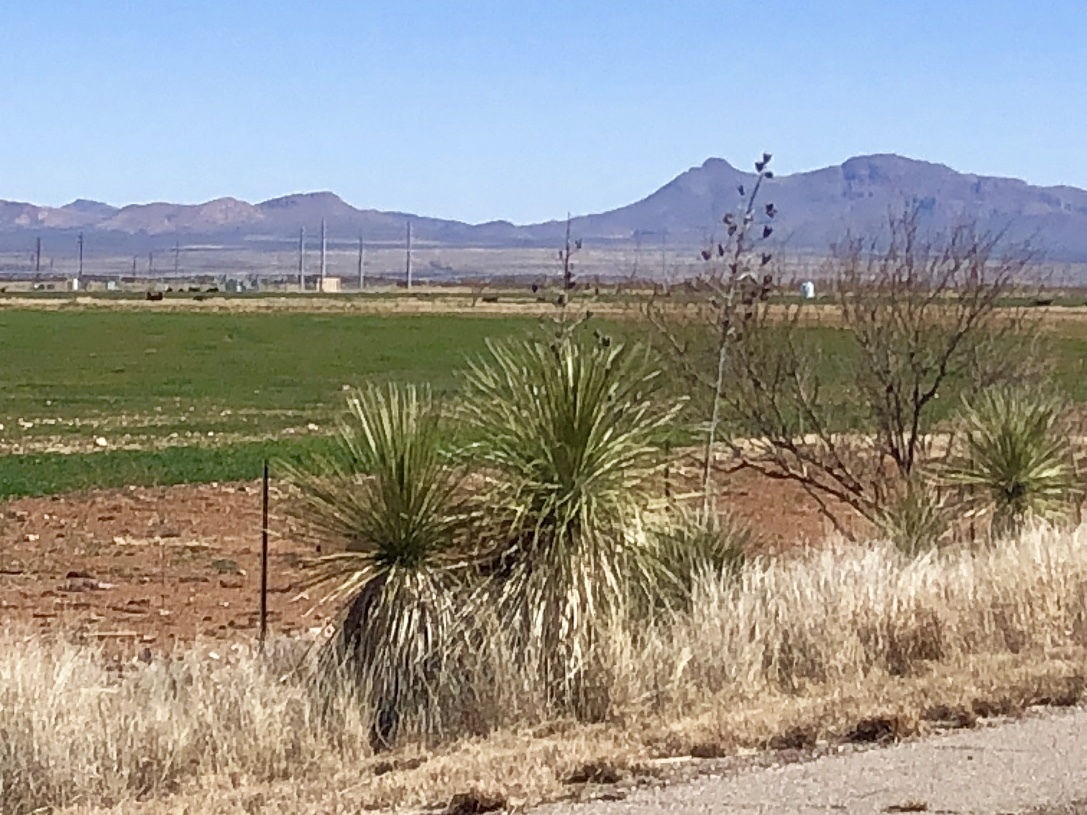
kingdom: Plantae
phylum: Tracheophyta
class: Liliopsida
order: Asparagales
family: Asparagaceae
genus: Yucca
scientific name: Yucca elata
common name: Palmella
